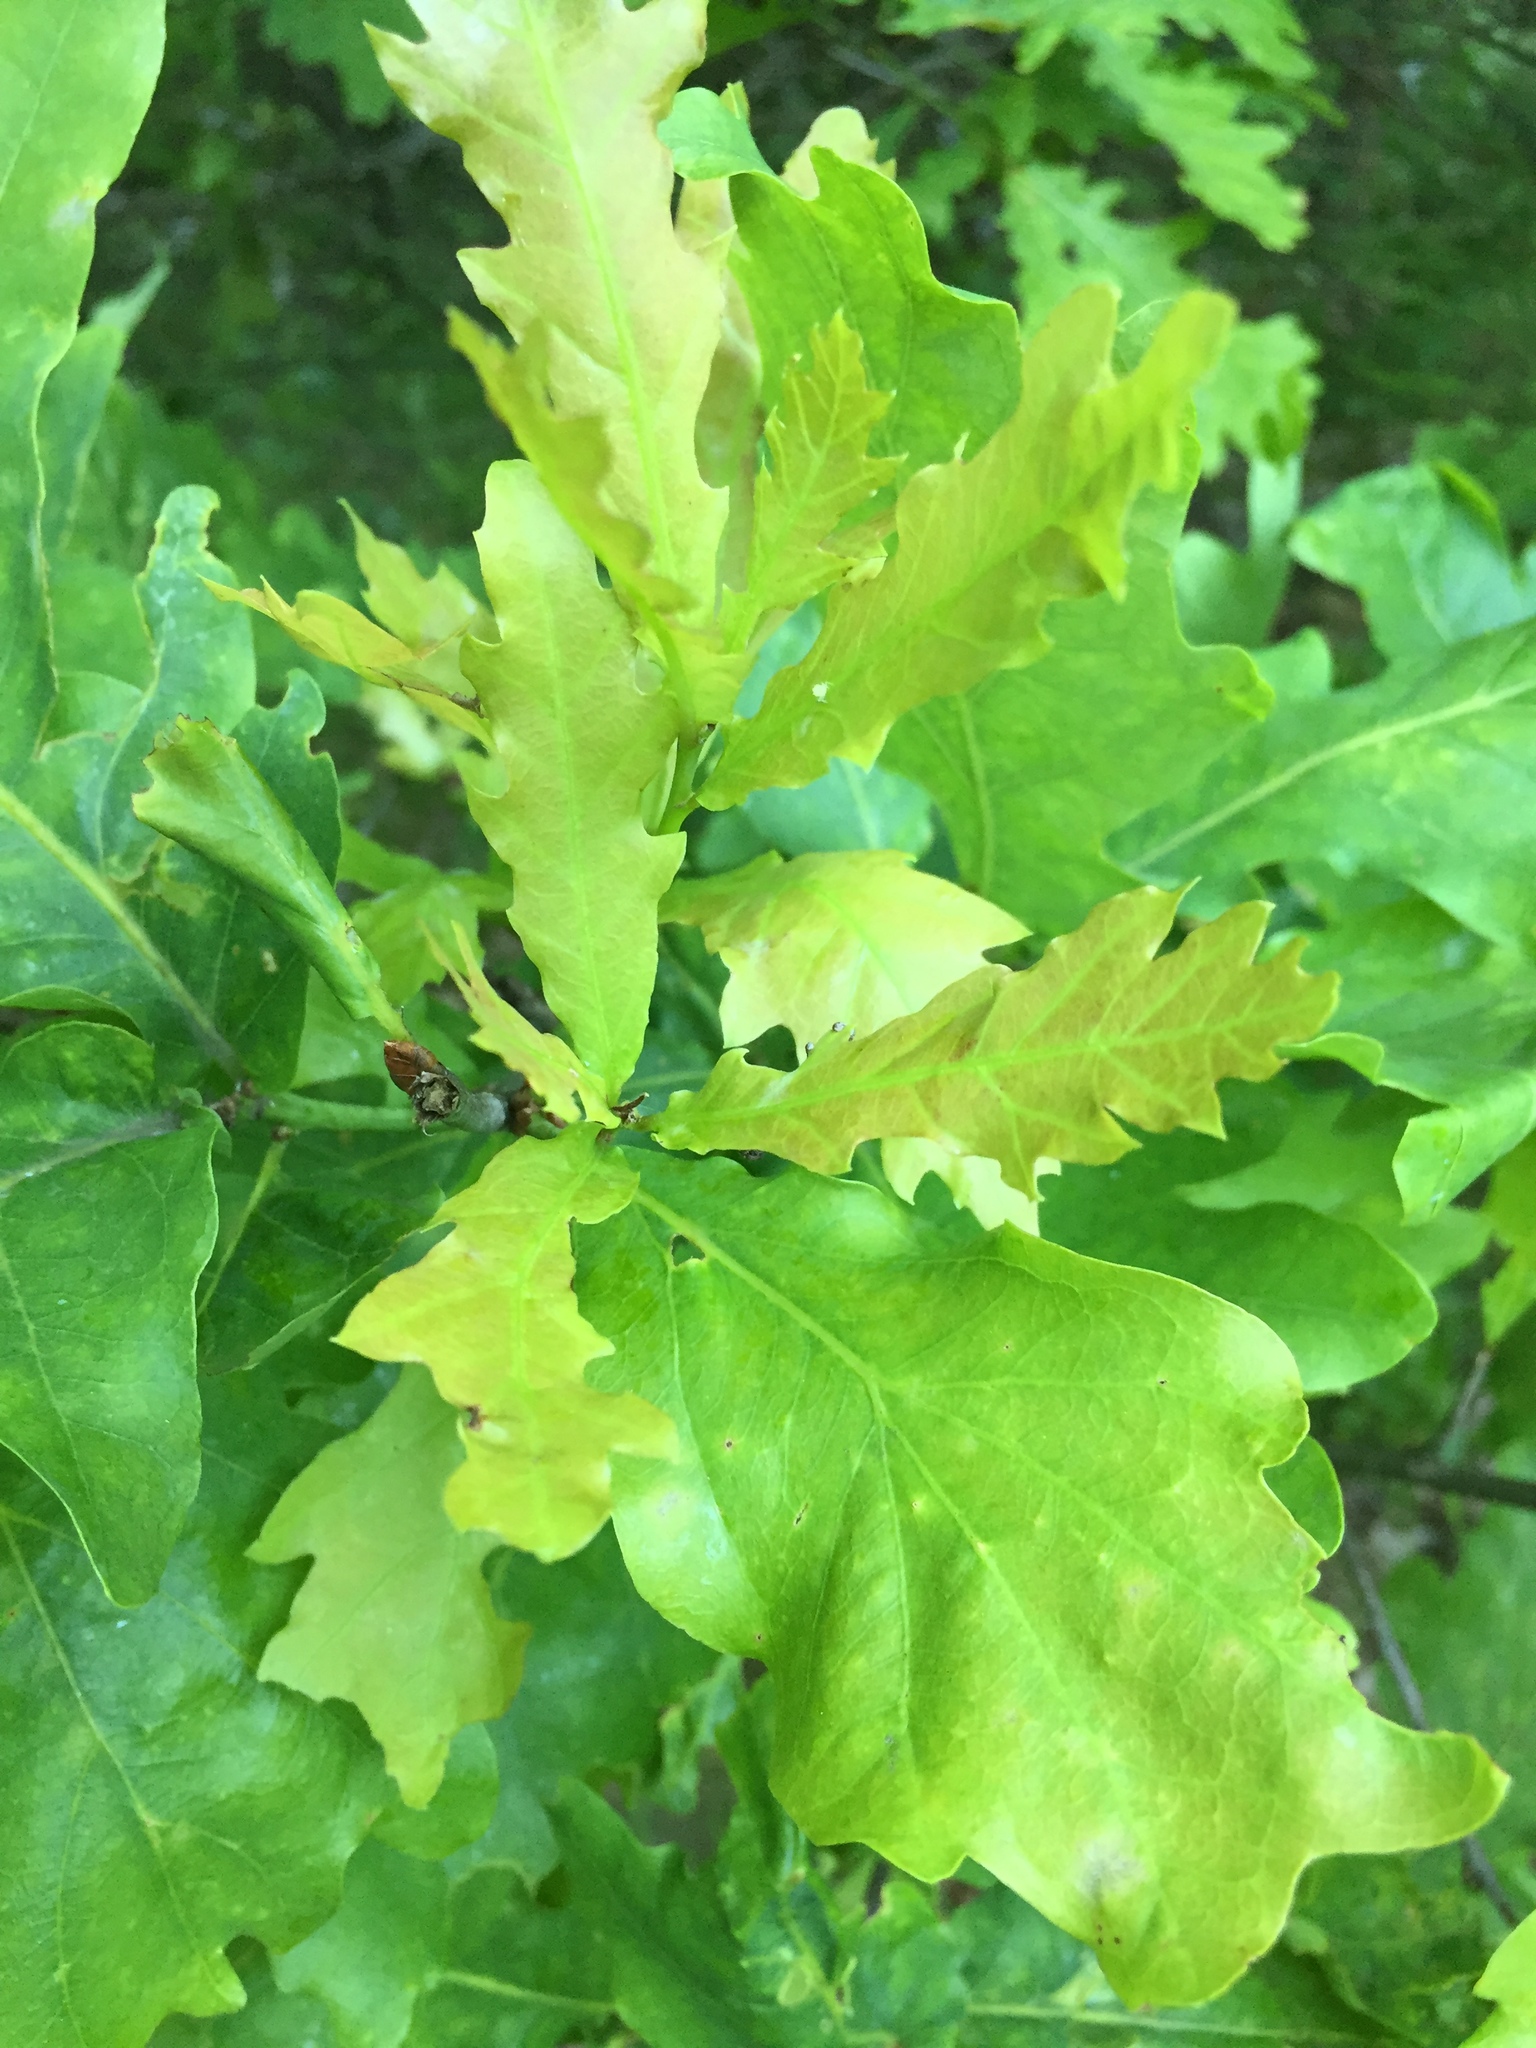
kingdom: Plantae
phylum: Tracheophyta
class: Magnoliopsida
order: Fagales
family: Fagaceae
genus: Quercus
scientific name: Quercus robur
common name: Pedunculate oak
